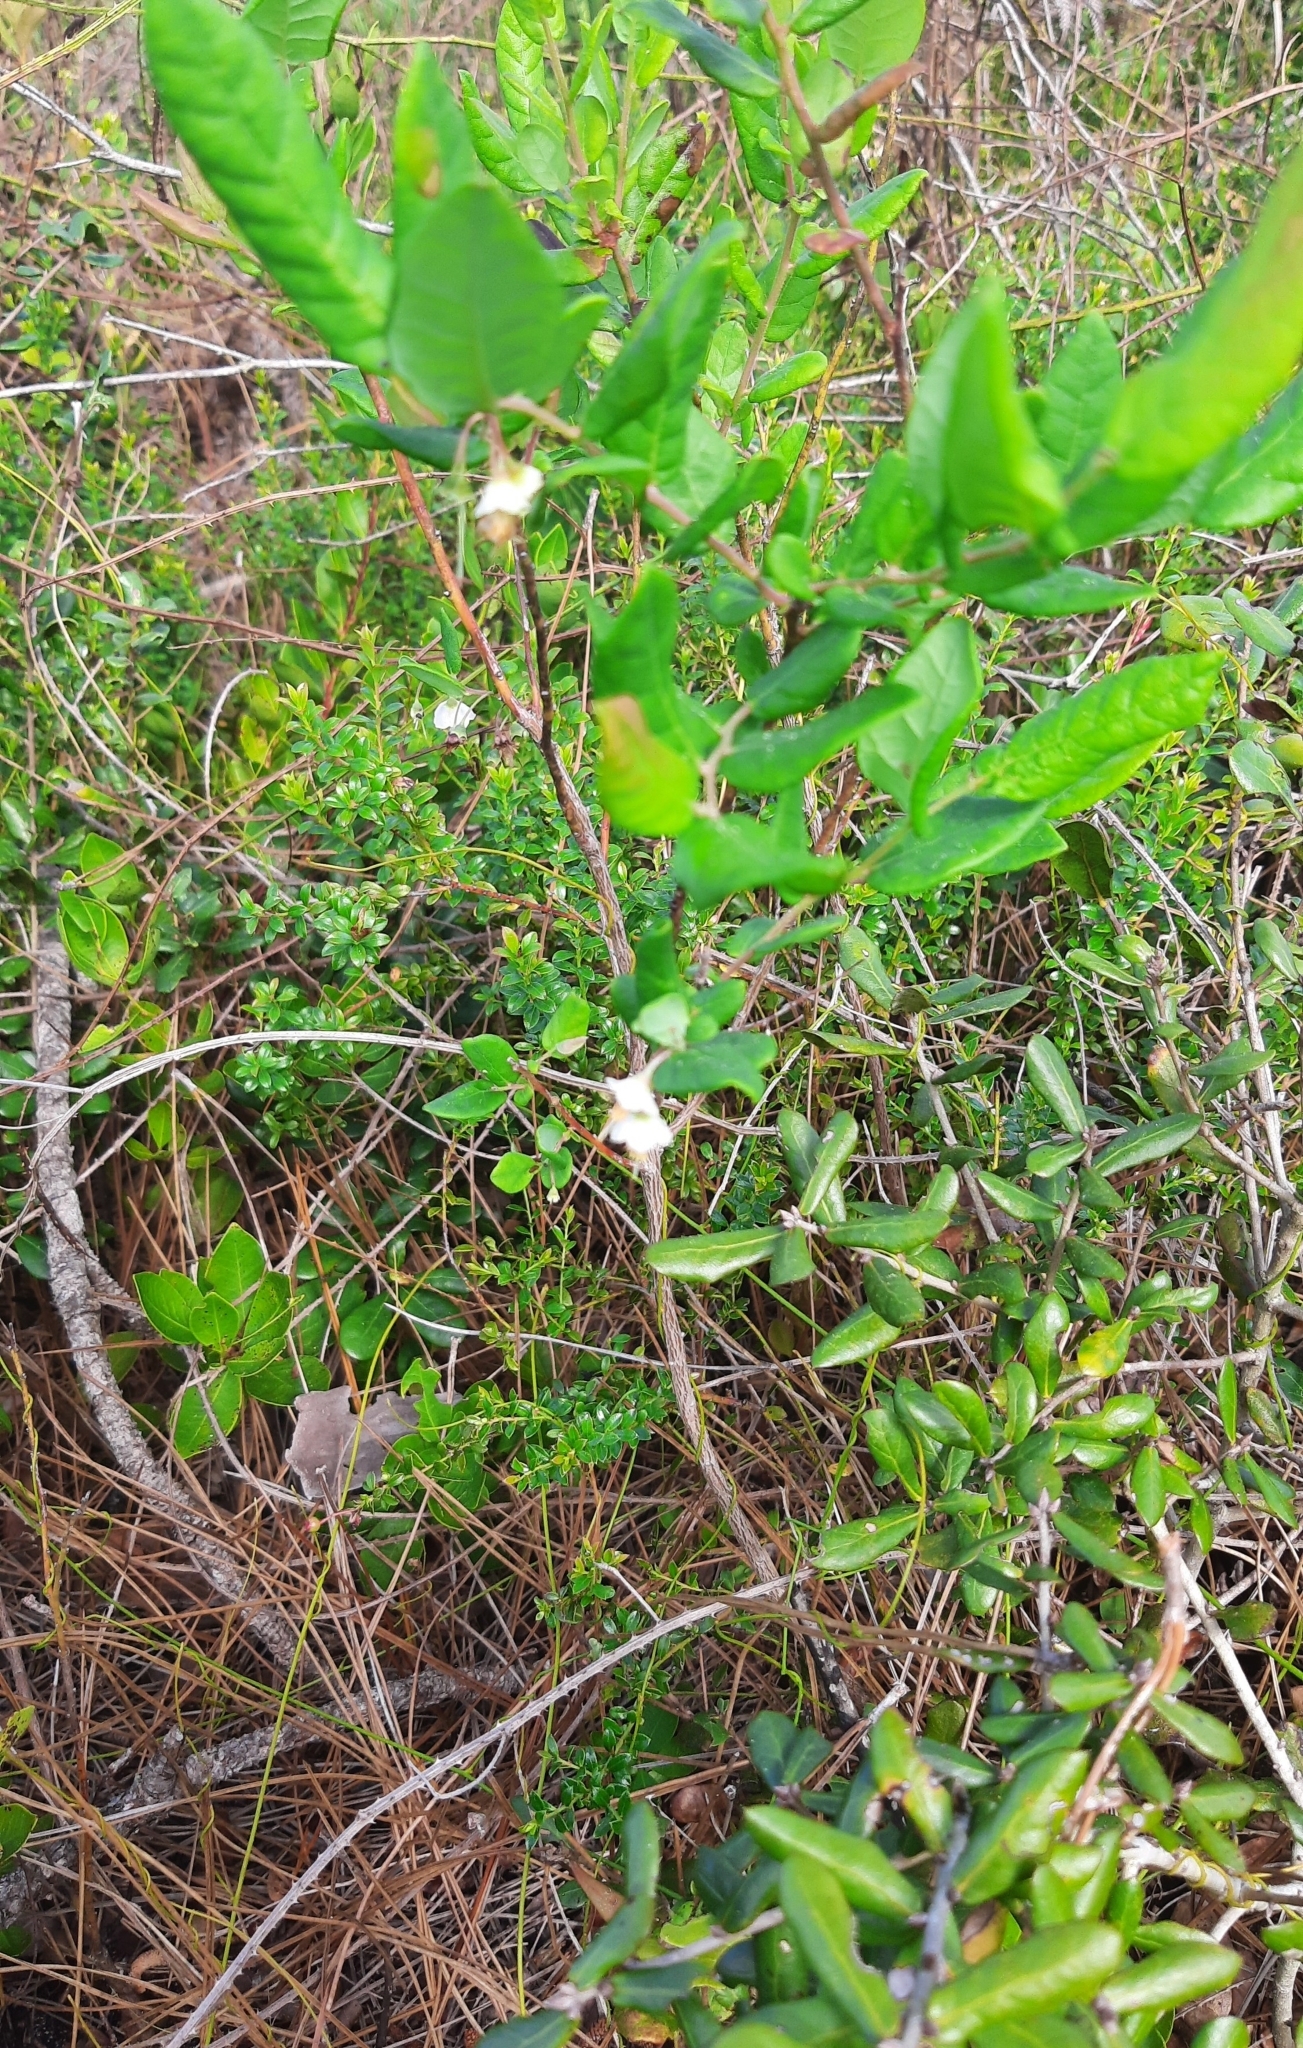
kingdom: Plantae
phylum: Tracheophyta
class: Magnoliopsida
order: Ericales
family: Ericaceae
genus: Vaccinium
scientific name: Vaccinium stamineum
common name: Deerberry
